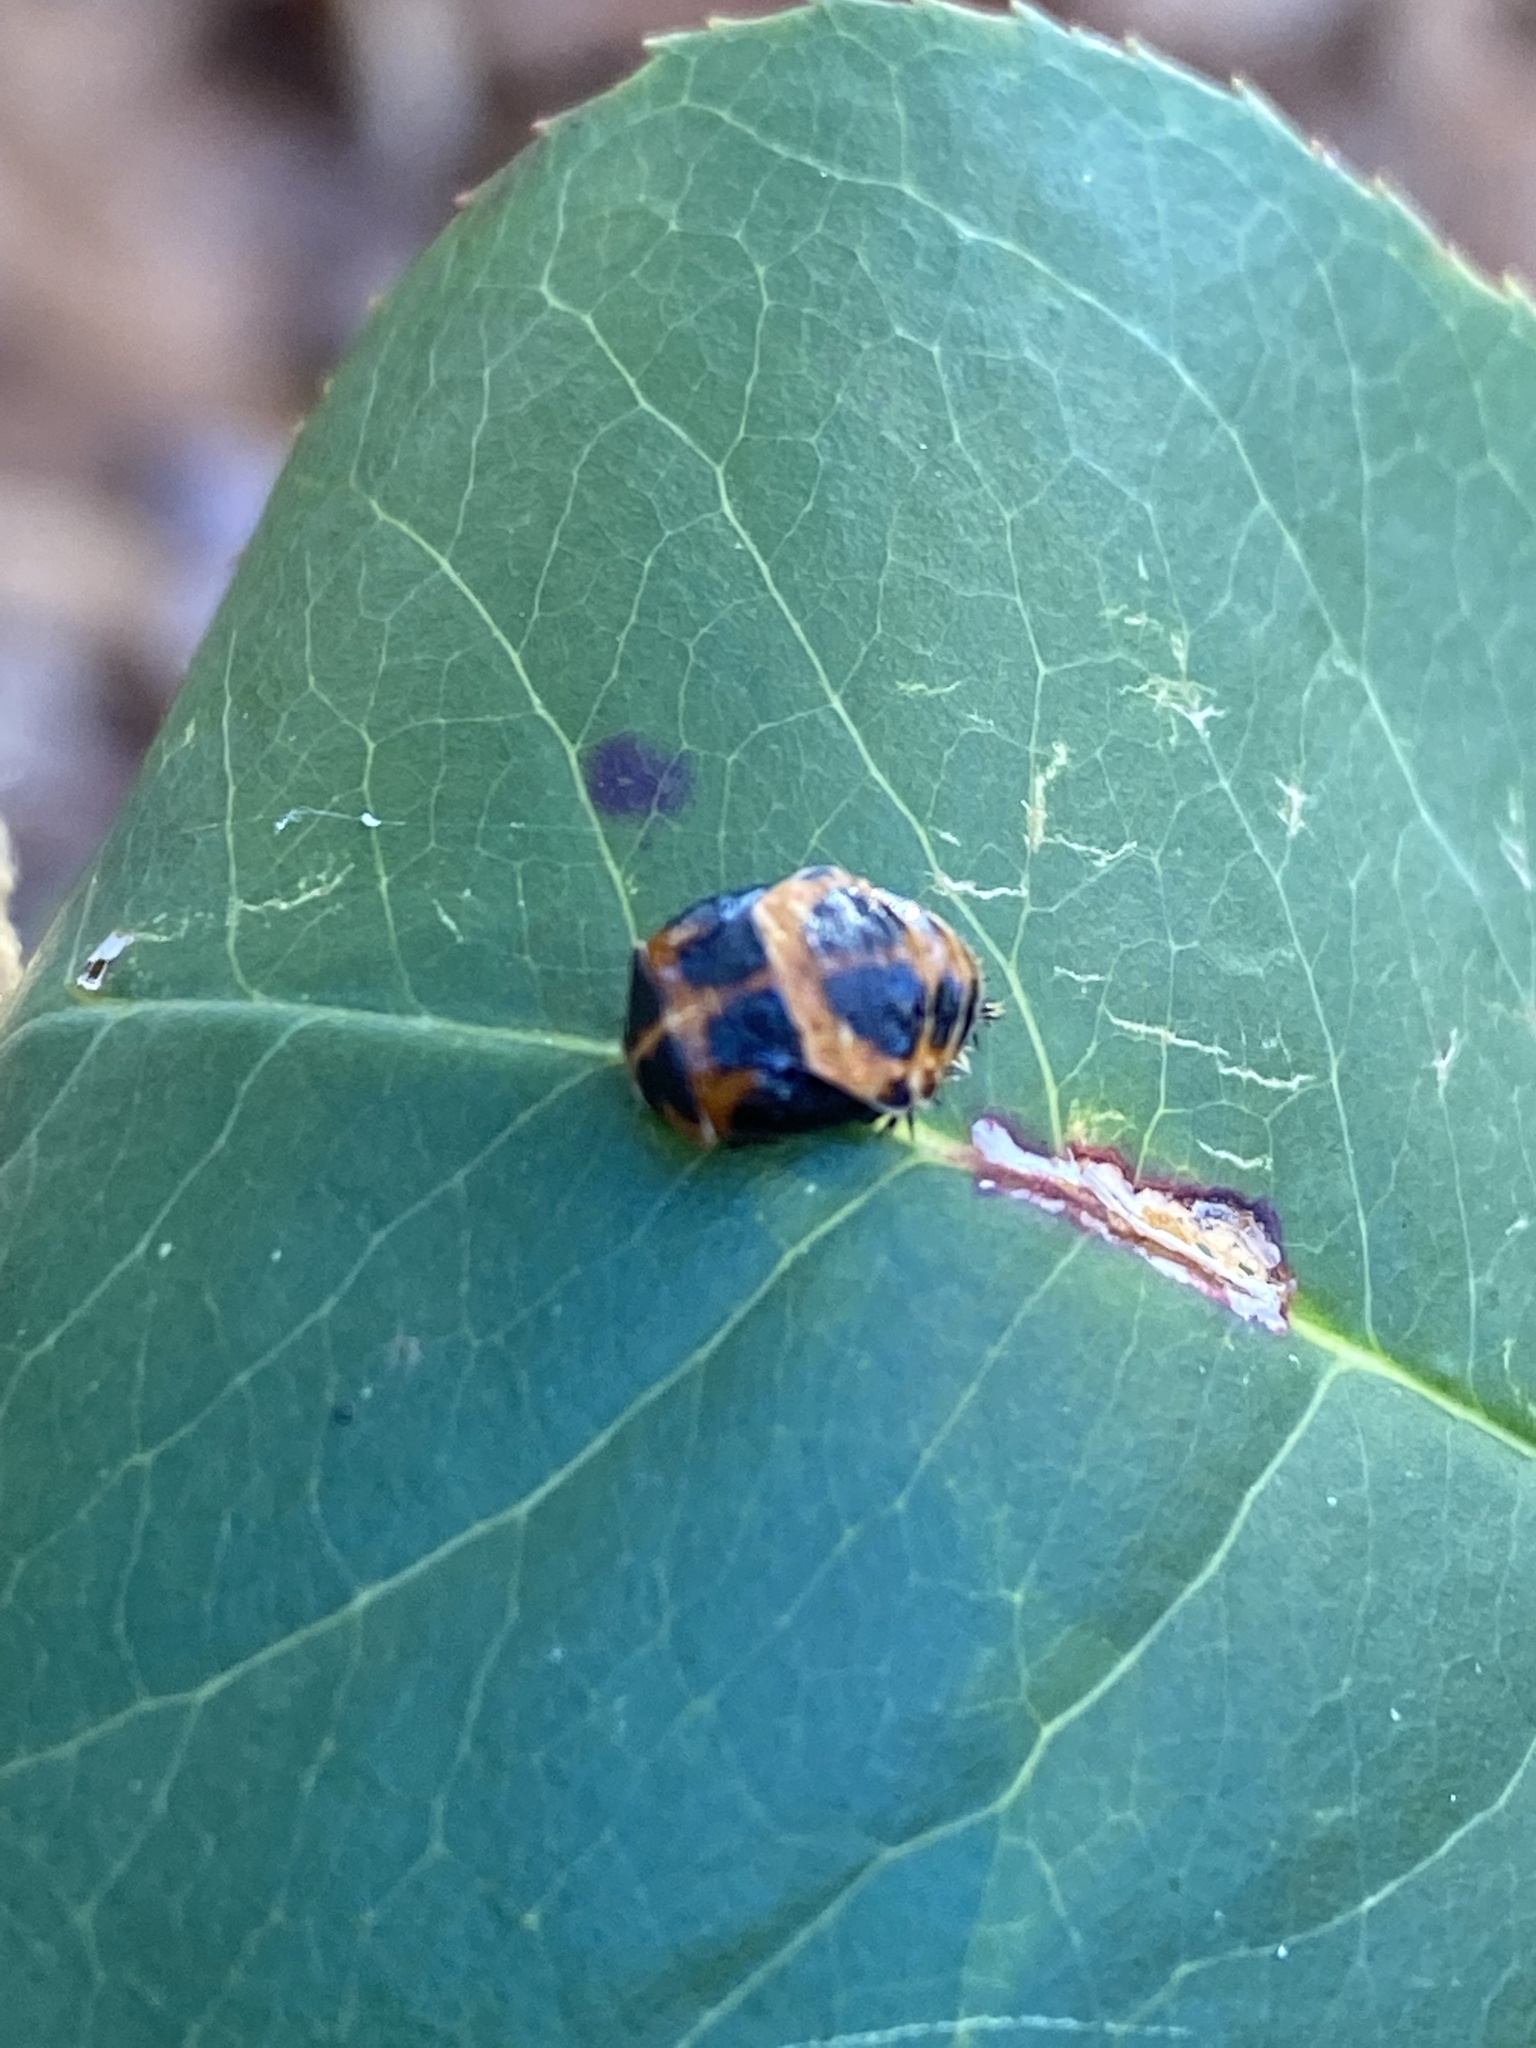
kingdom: Animalia
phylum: Arthropoda
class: Insecta
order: Coleoptera
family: Coccinellidae
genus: Harmonia
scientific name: Harmonia axyridis
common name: Harlequin ladybird
